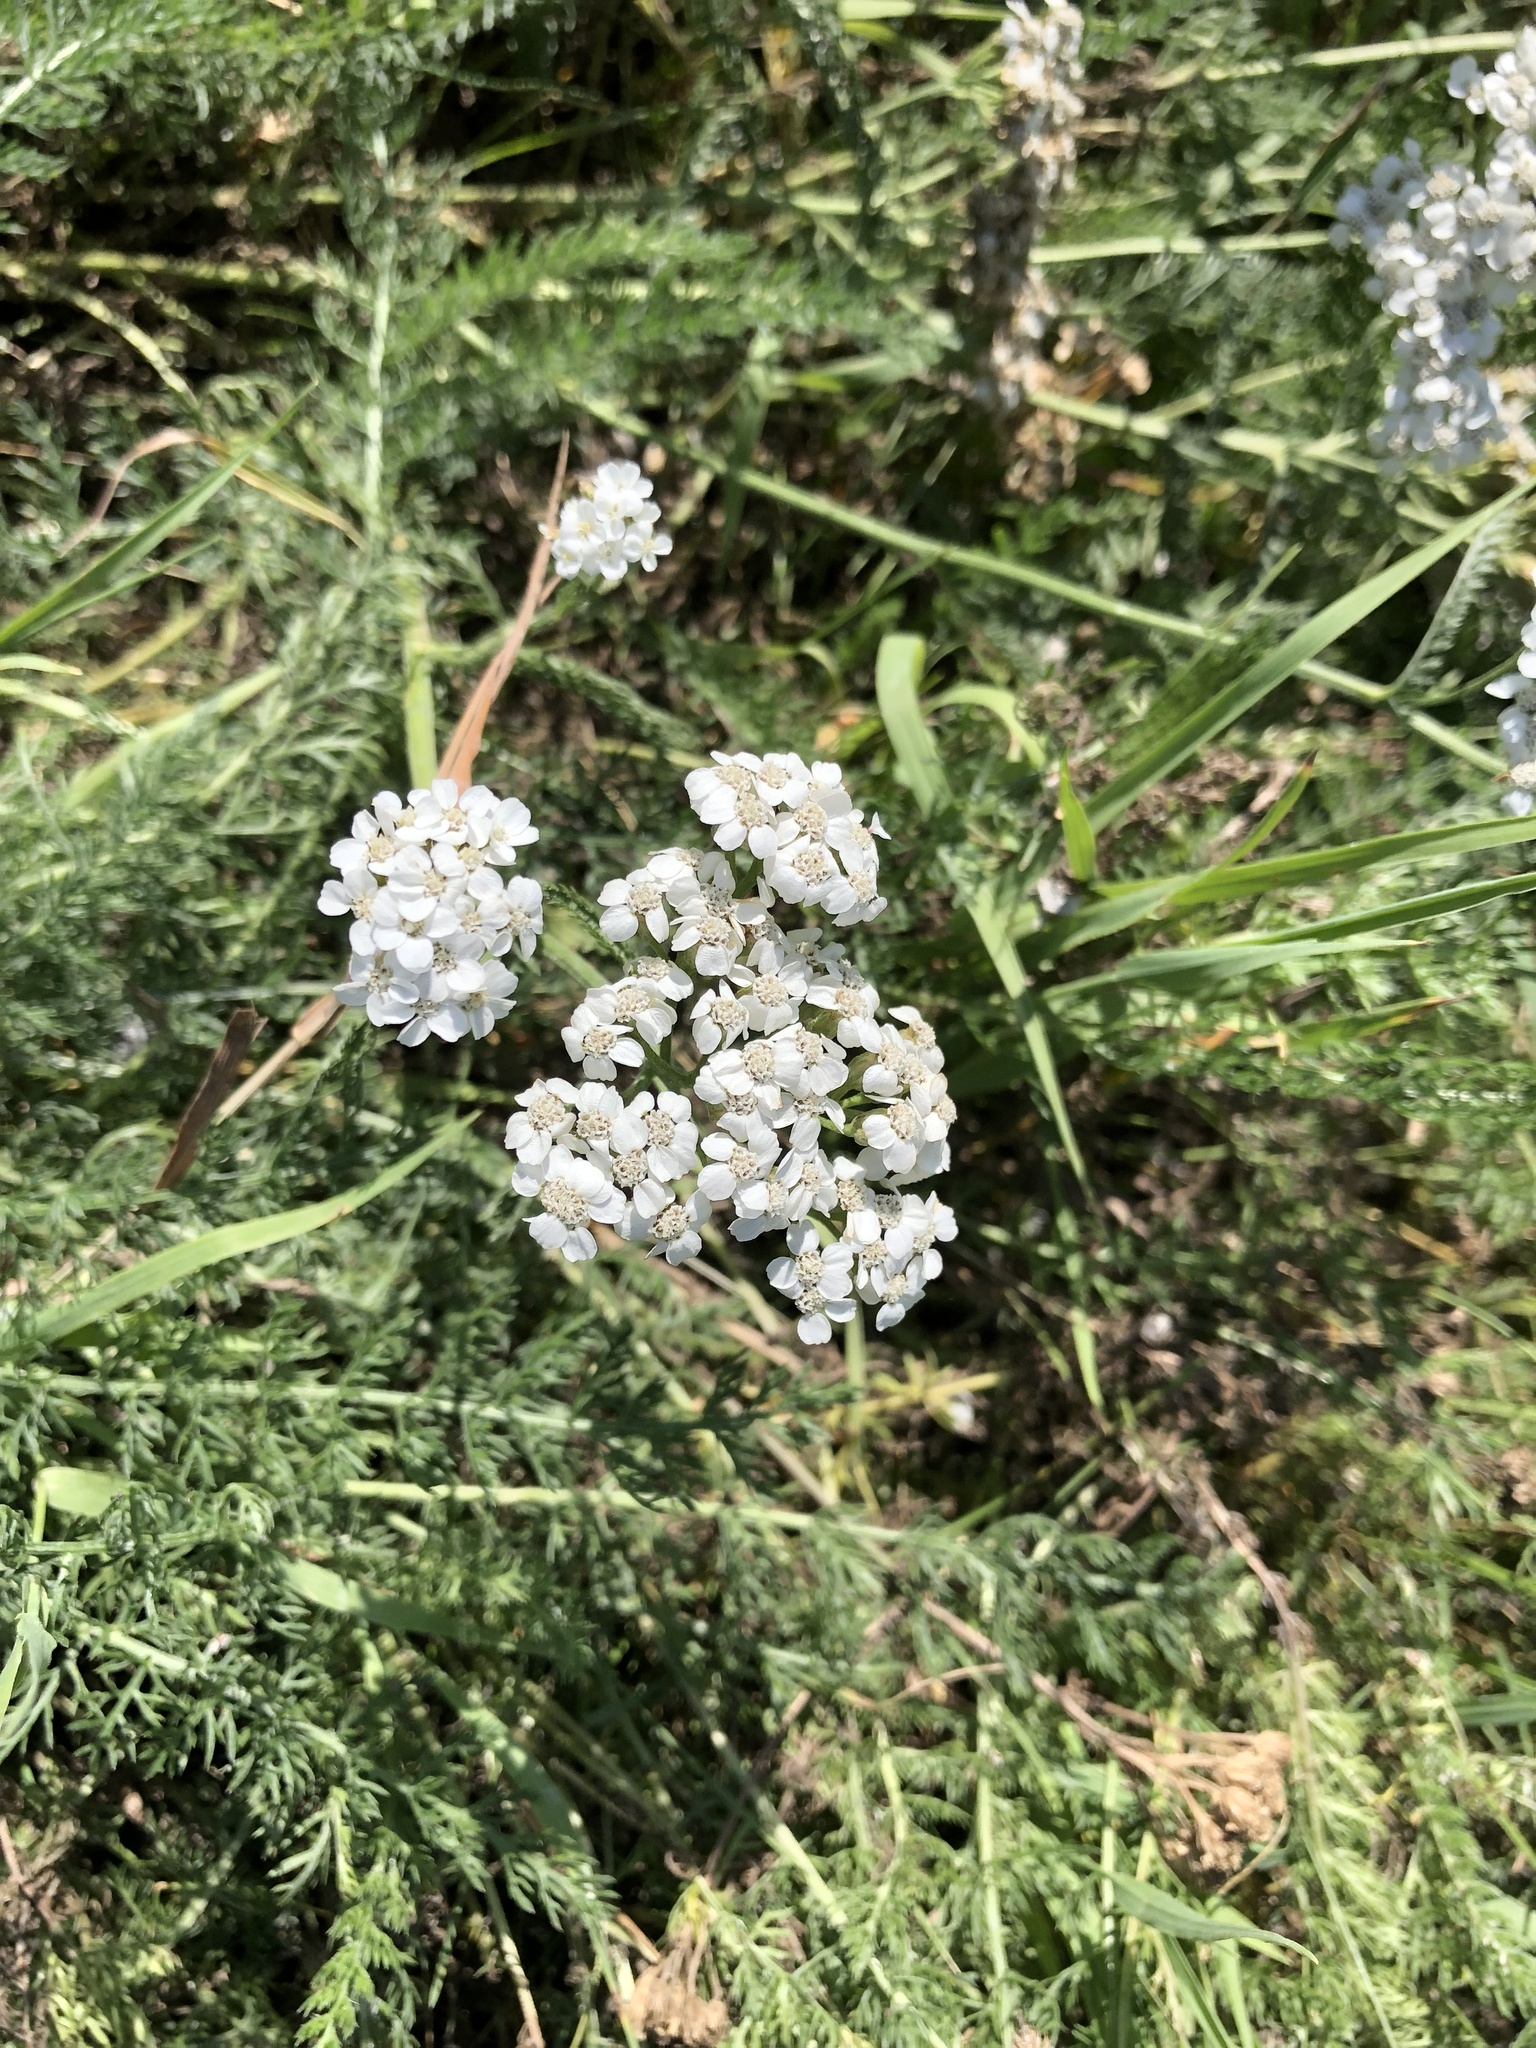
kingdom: Plantae
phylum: Tracheophyta
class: Magnoliopsida
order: Asterales
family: Asteraceae
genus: Achillea
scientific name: Achillea millefolium
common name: Yarrow
